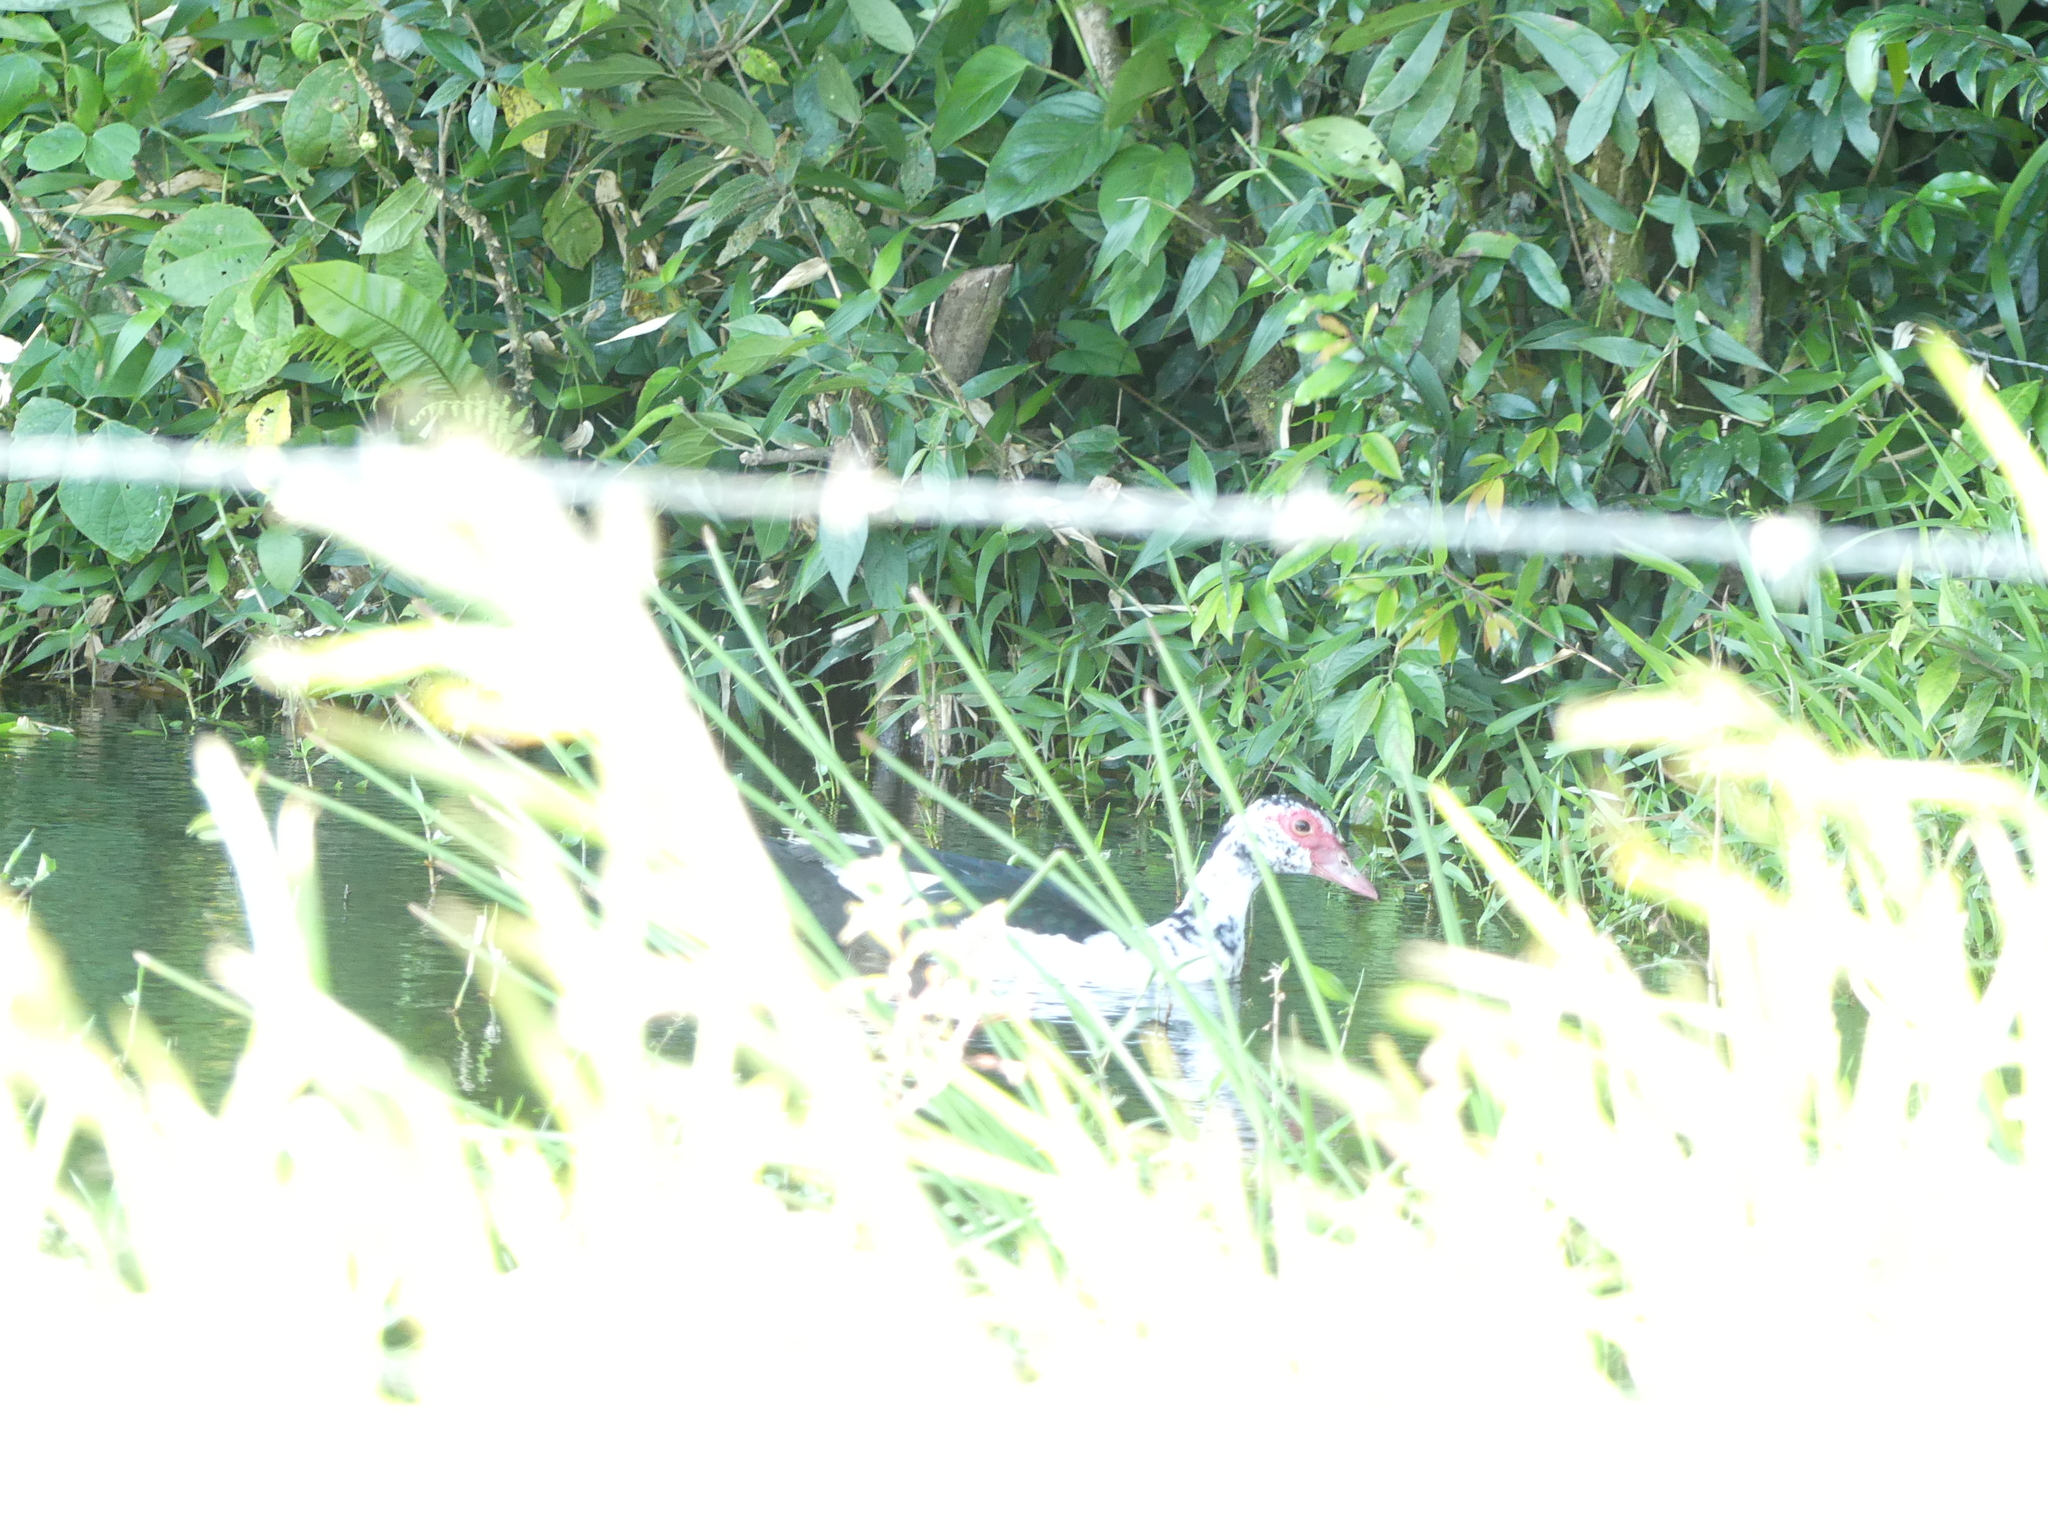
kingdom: Animalia
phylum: Chordata
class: Aves
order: Anseriformes
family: Anatidae
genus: Cairina
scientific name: Cairina moschata
